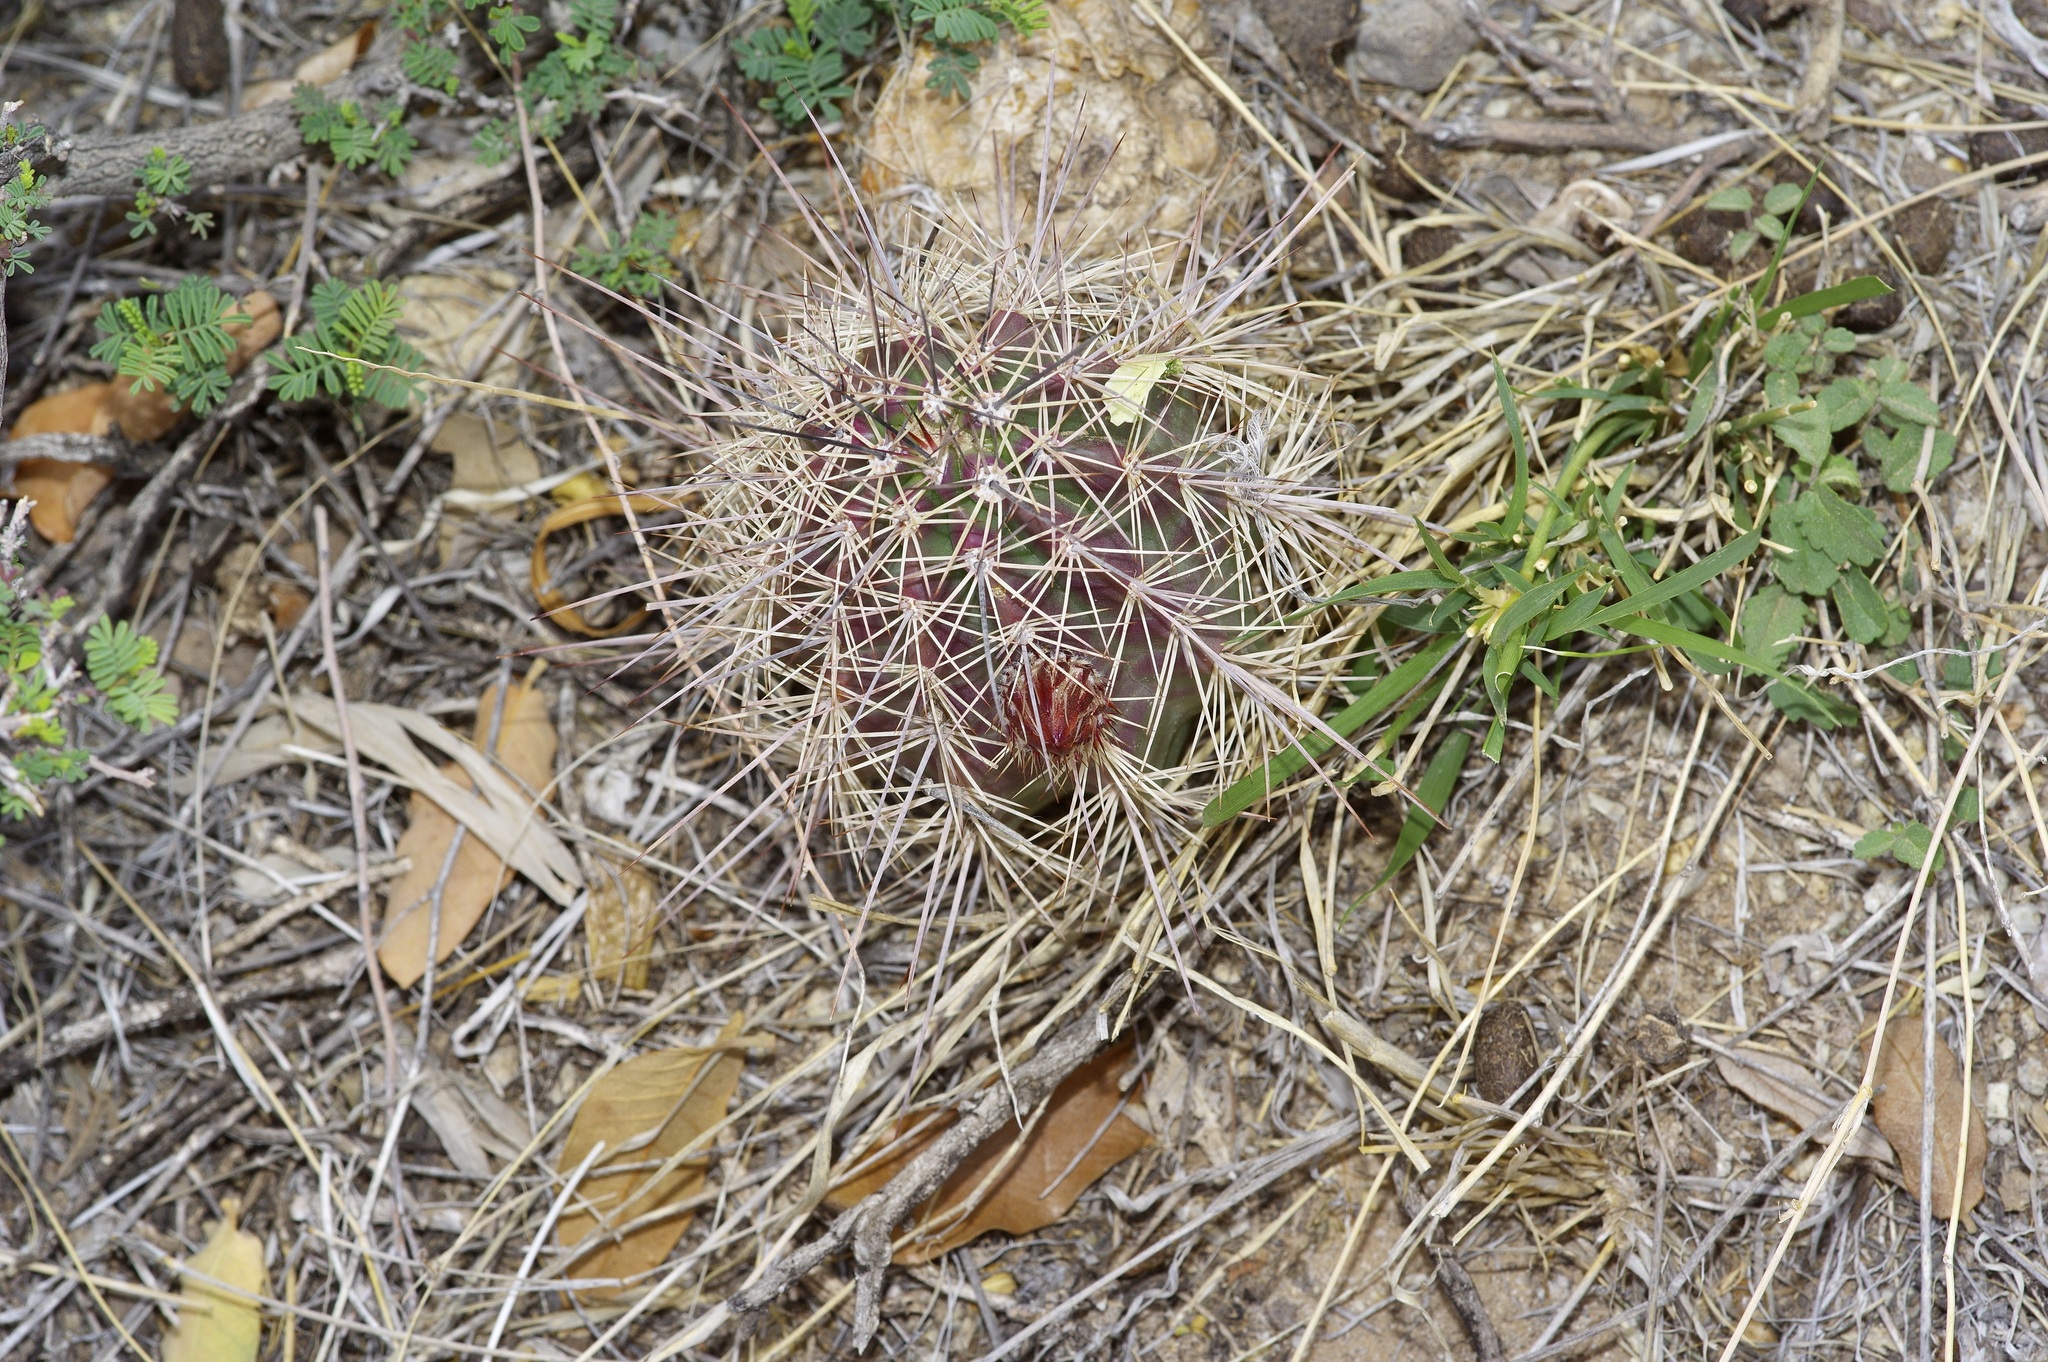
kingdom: Plantae
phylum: Tracheophyta
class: Magnoliopsida
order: Caryophyllales
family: Cactaceae
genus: Echinocereus
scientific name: Echinocereus coccineus
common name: Scarlet hedgehog cactus
